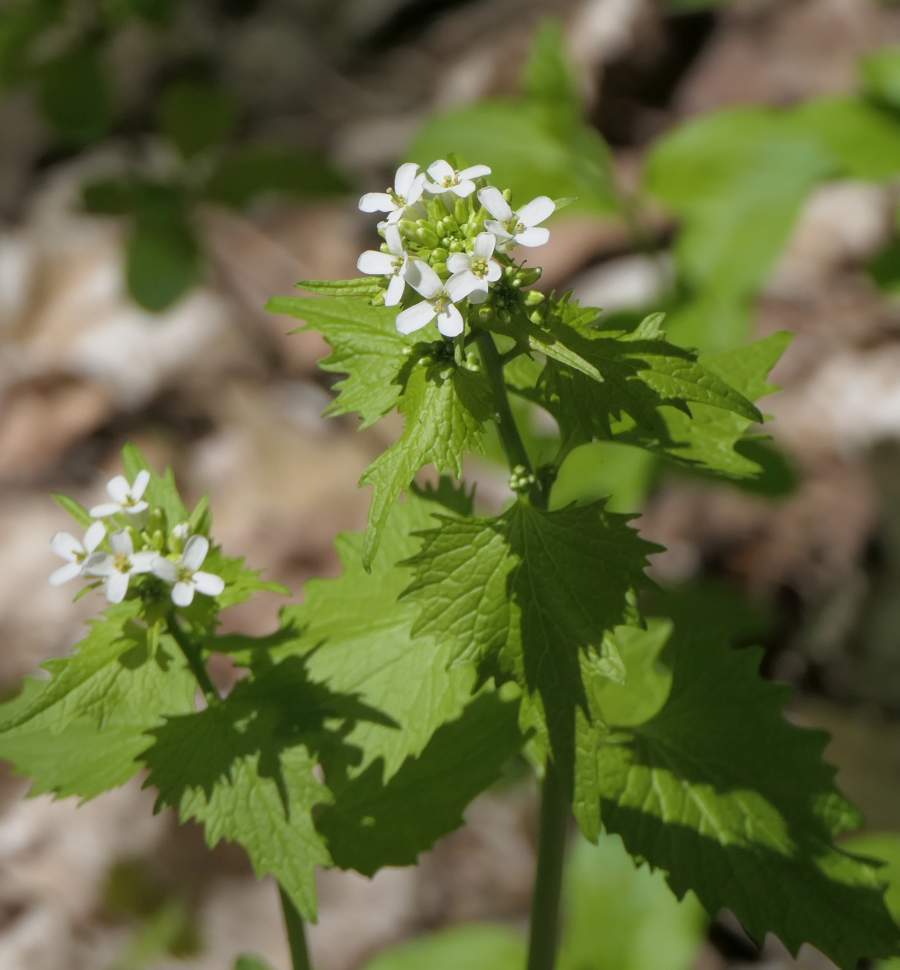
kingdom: Plantae
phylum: Tracheophyta
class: Magnoliopsida
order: Brassicales
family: Brassicaceae
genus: Alliaria
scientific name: Alliaria petiolata
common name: Garlic mustard
